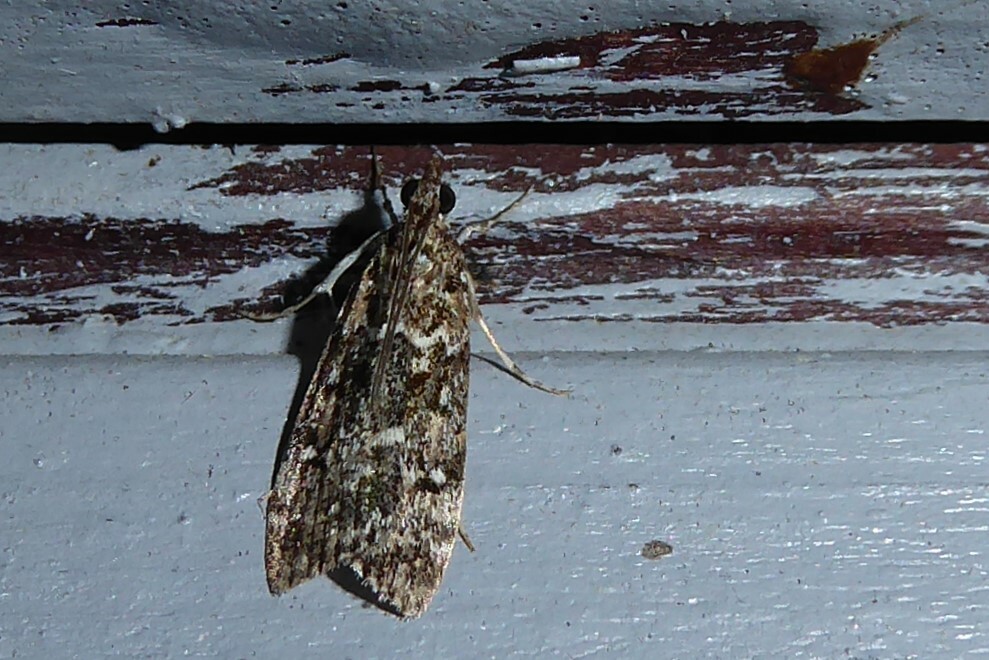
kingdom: Animalia
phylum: Arthropoda
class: Insecta
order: Lepidoptera
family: Crambidae
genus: Eudonia
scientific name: Eudonia philerga
